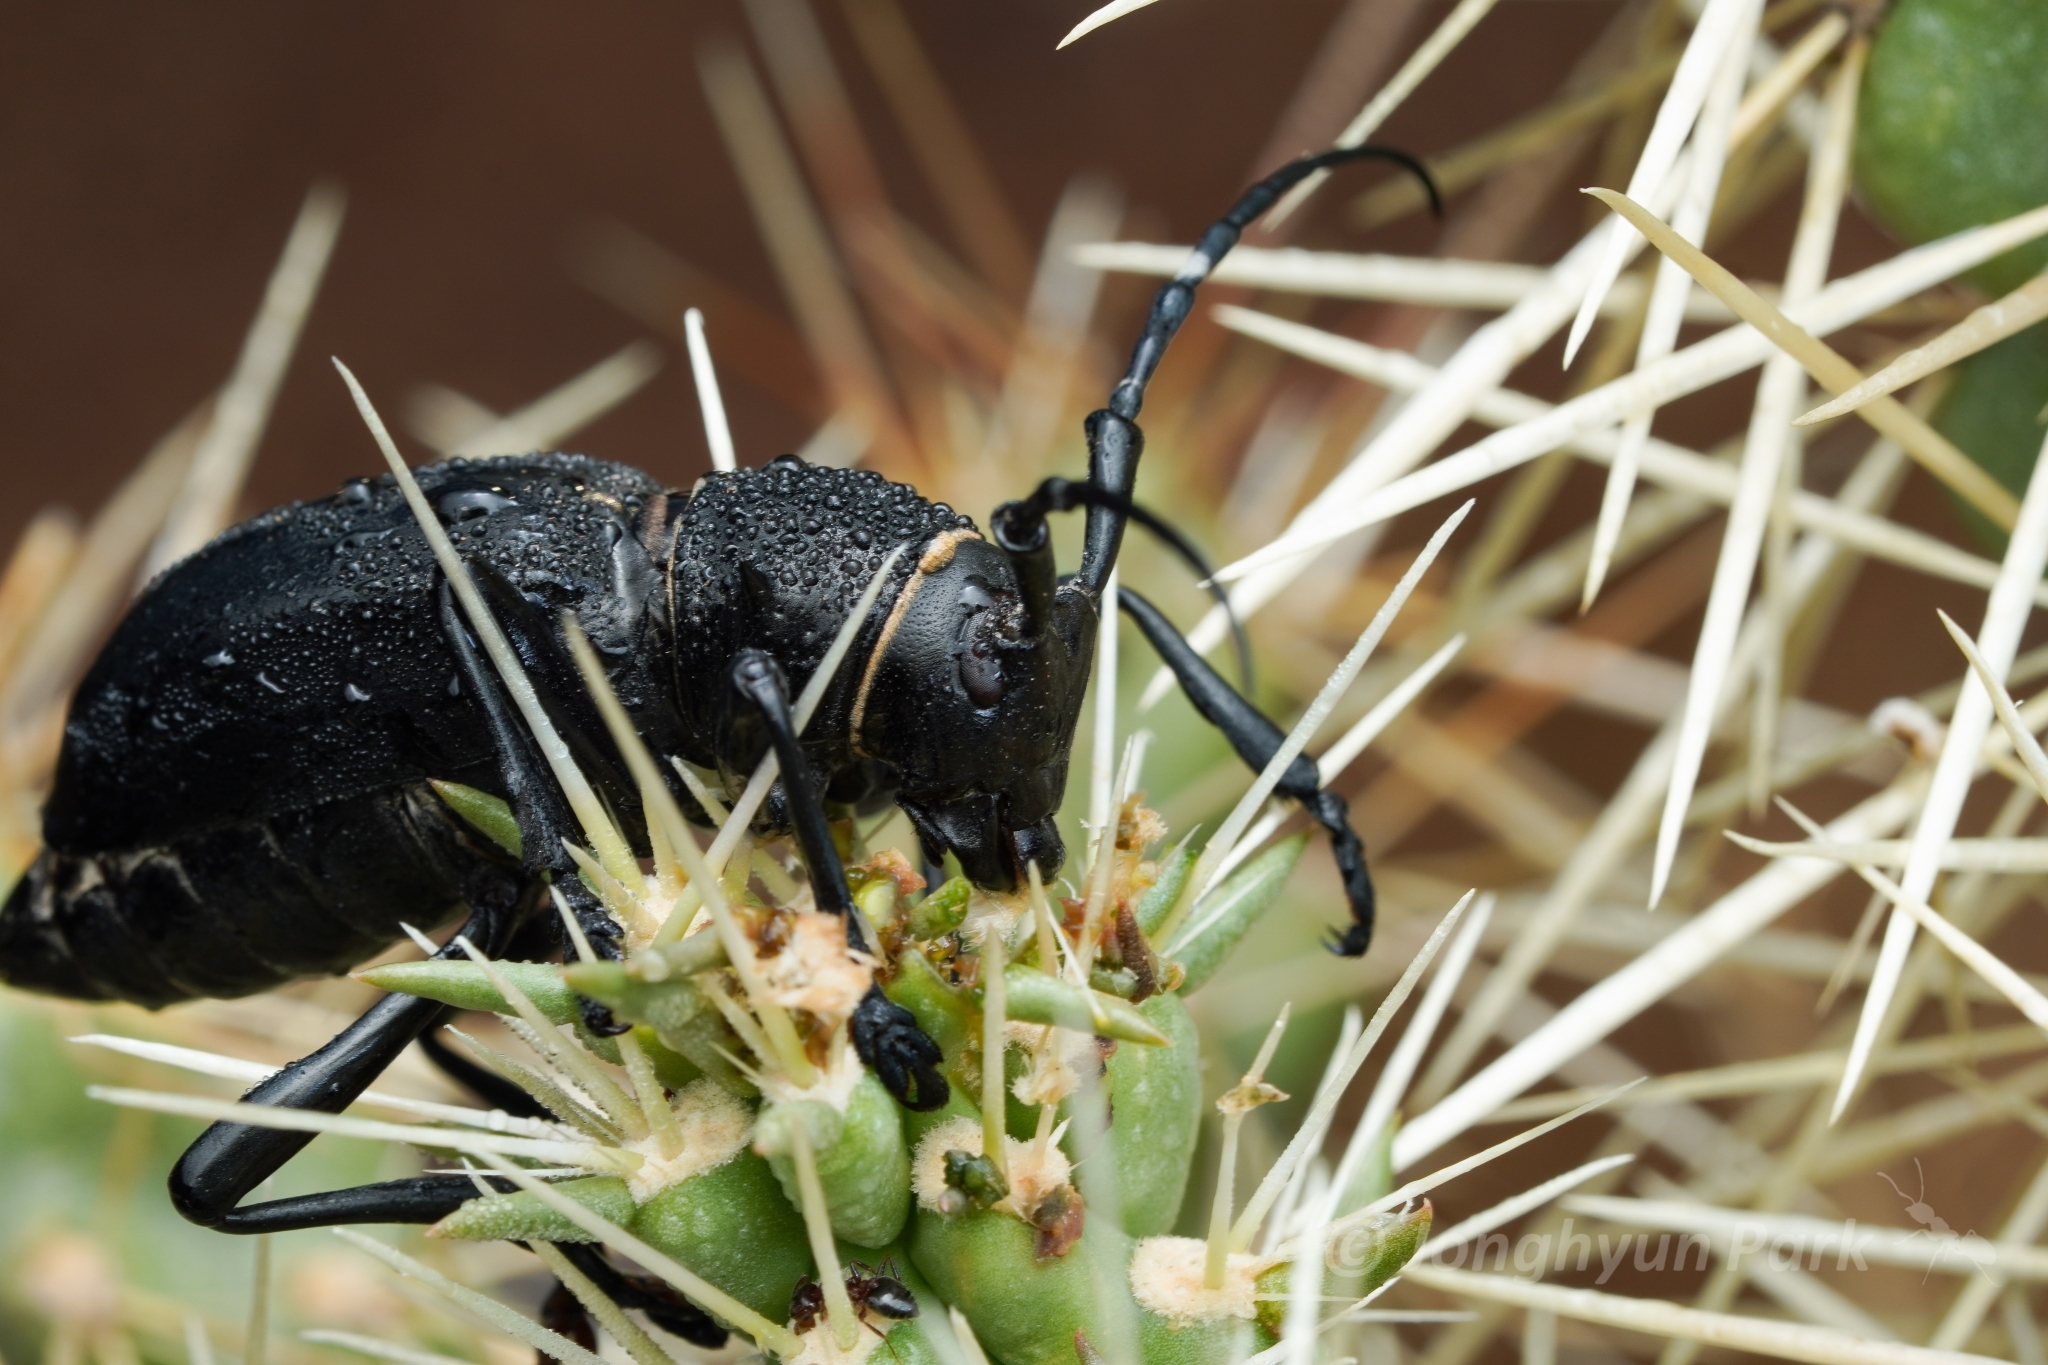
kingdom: Animalia
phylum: Arthropoda
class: Insecta
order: Coleoptera
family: Cerambycidae
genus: Moneilema
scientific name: Moneilema gigas
